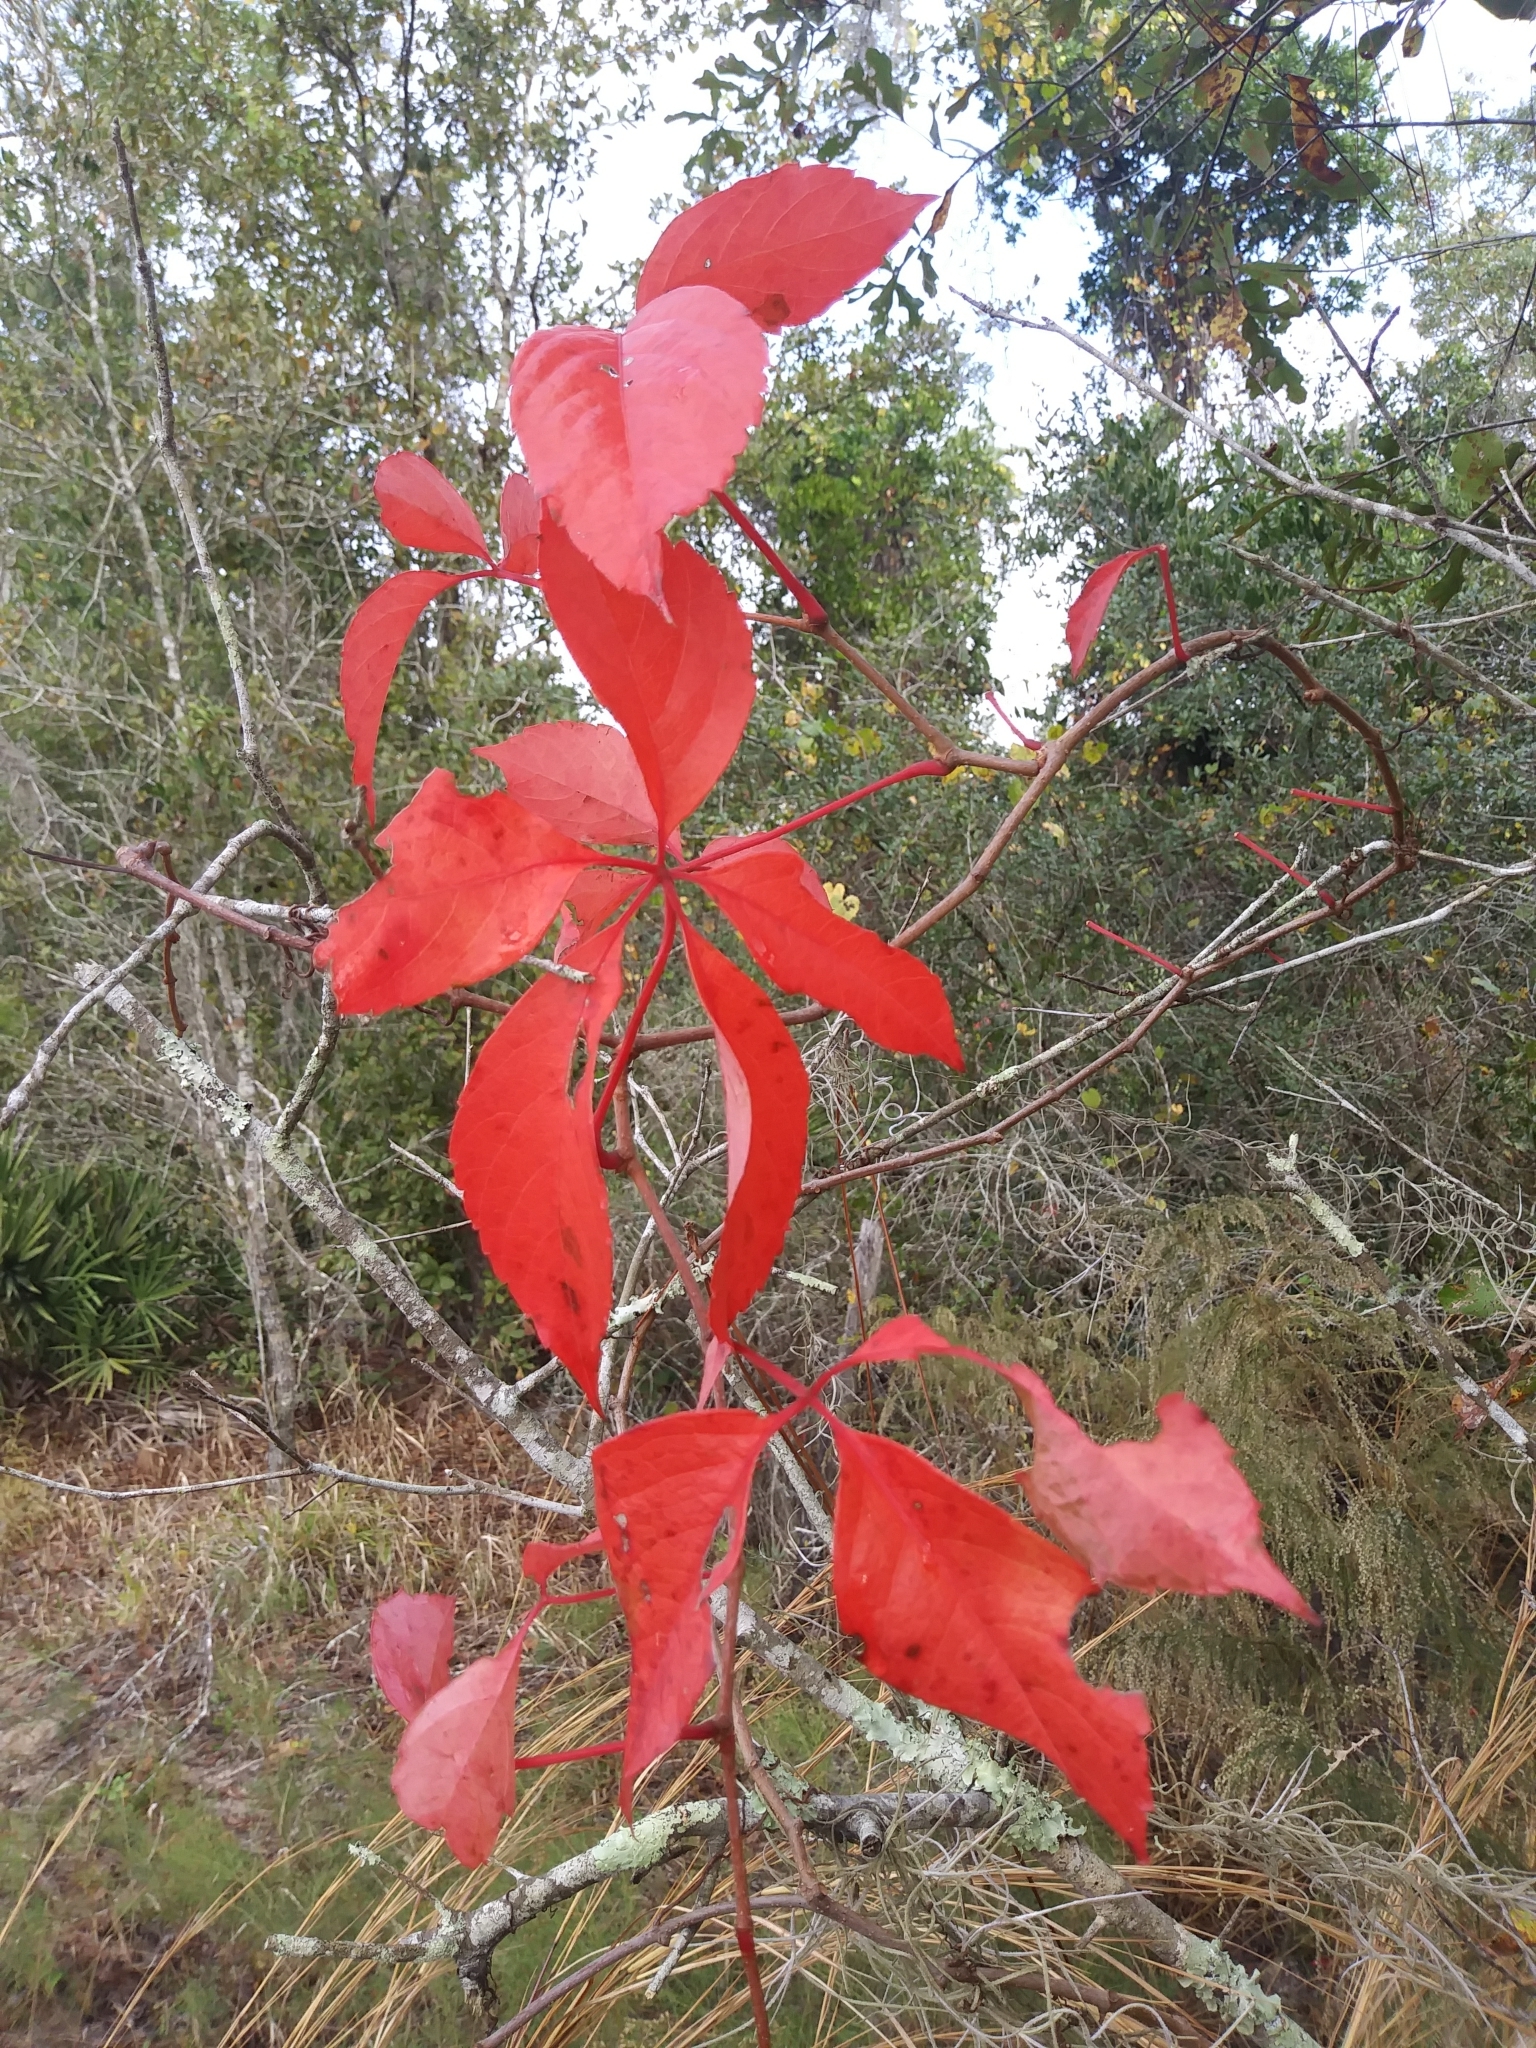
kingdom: Plantae
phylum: Tracheophyta
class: Magnoliopsida
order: Vitales
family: Vitaceae
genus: Parthenocissus
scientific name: Parthenocissus quinquefolia
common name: Virginia-creeper
